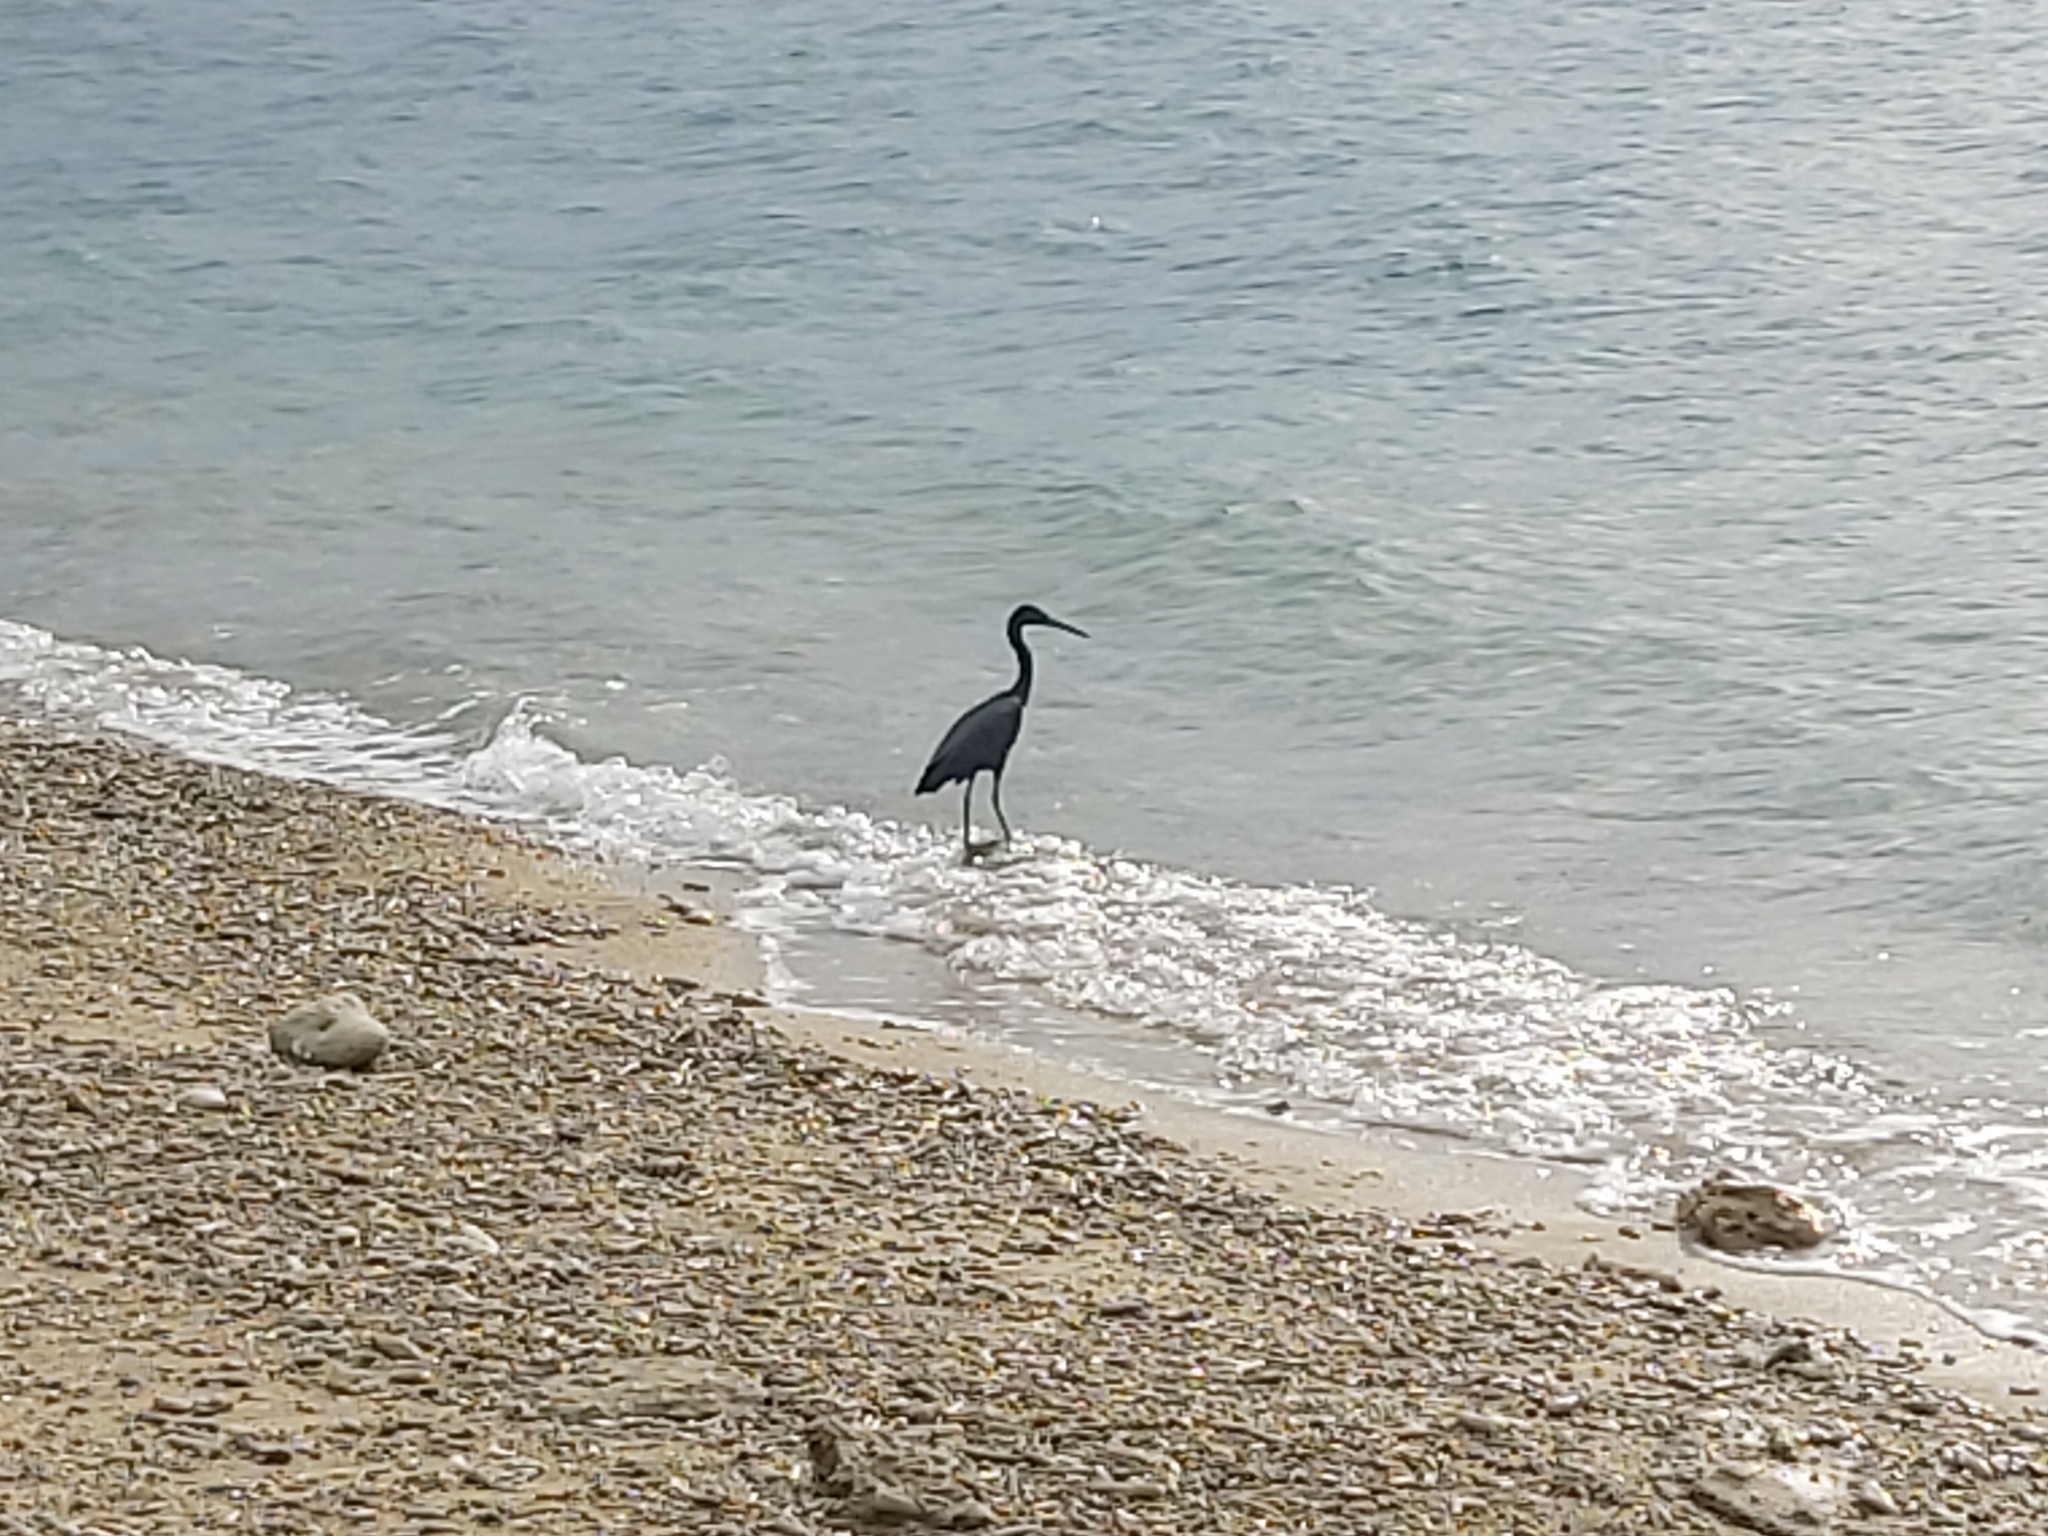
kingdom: Animalia
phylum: Chordata
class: Aves
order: Pelecaniformes
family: Ardeidae
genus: Egretta
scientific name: Egretta sacra
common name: Pacific reef heron
